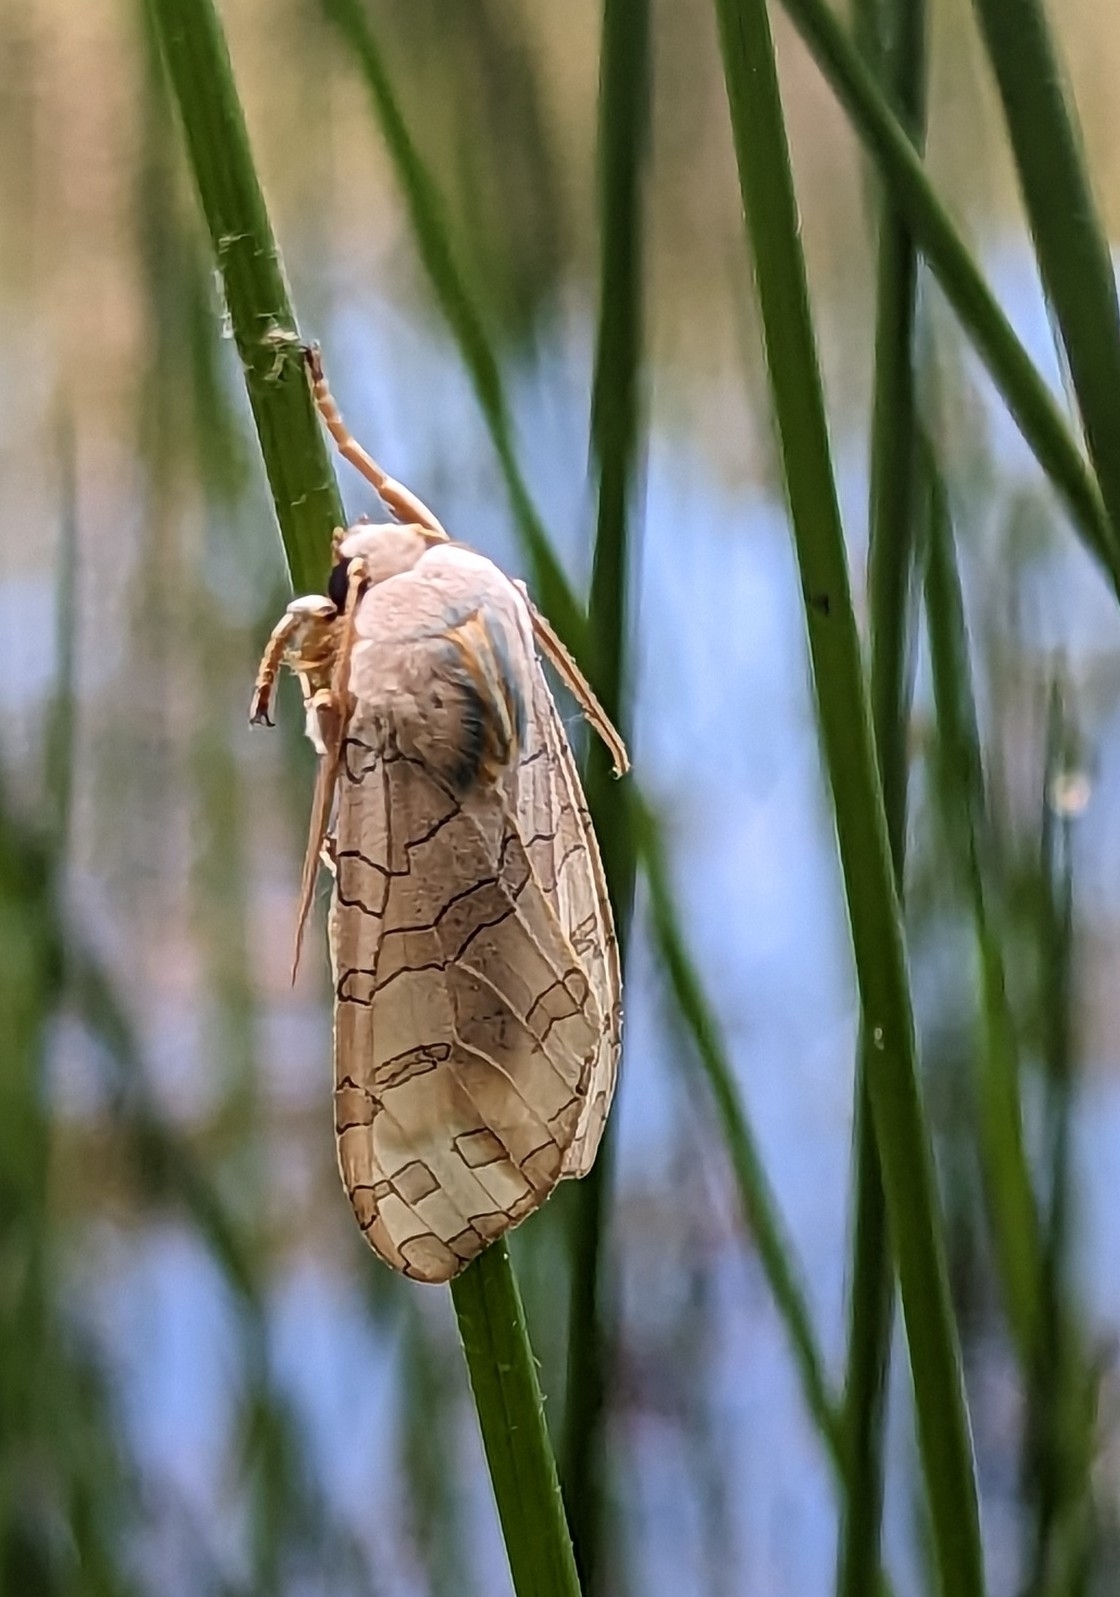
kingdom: Animalia
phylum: Arthropoda
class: Insecta
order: Lepidoptera
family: Erebidae
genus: Halysidota
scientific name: Halysidota
